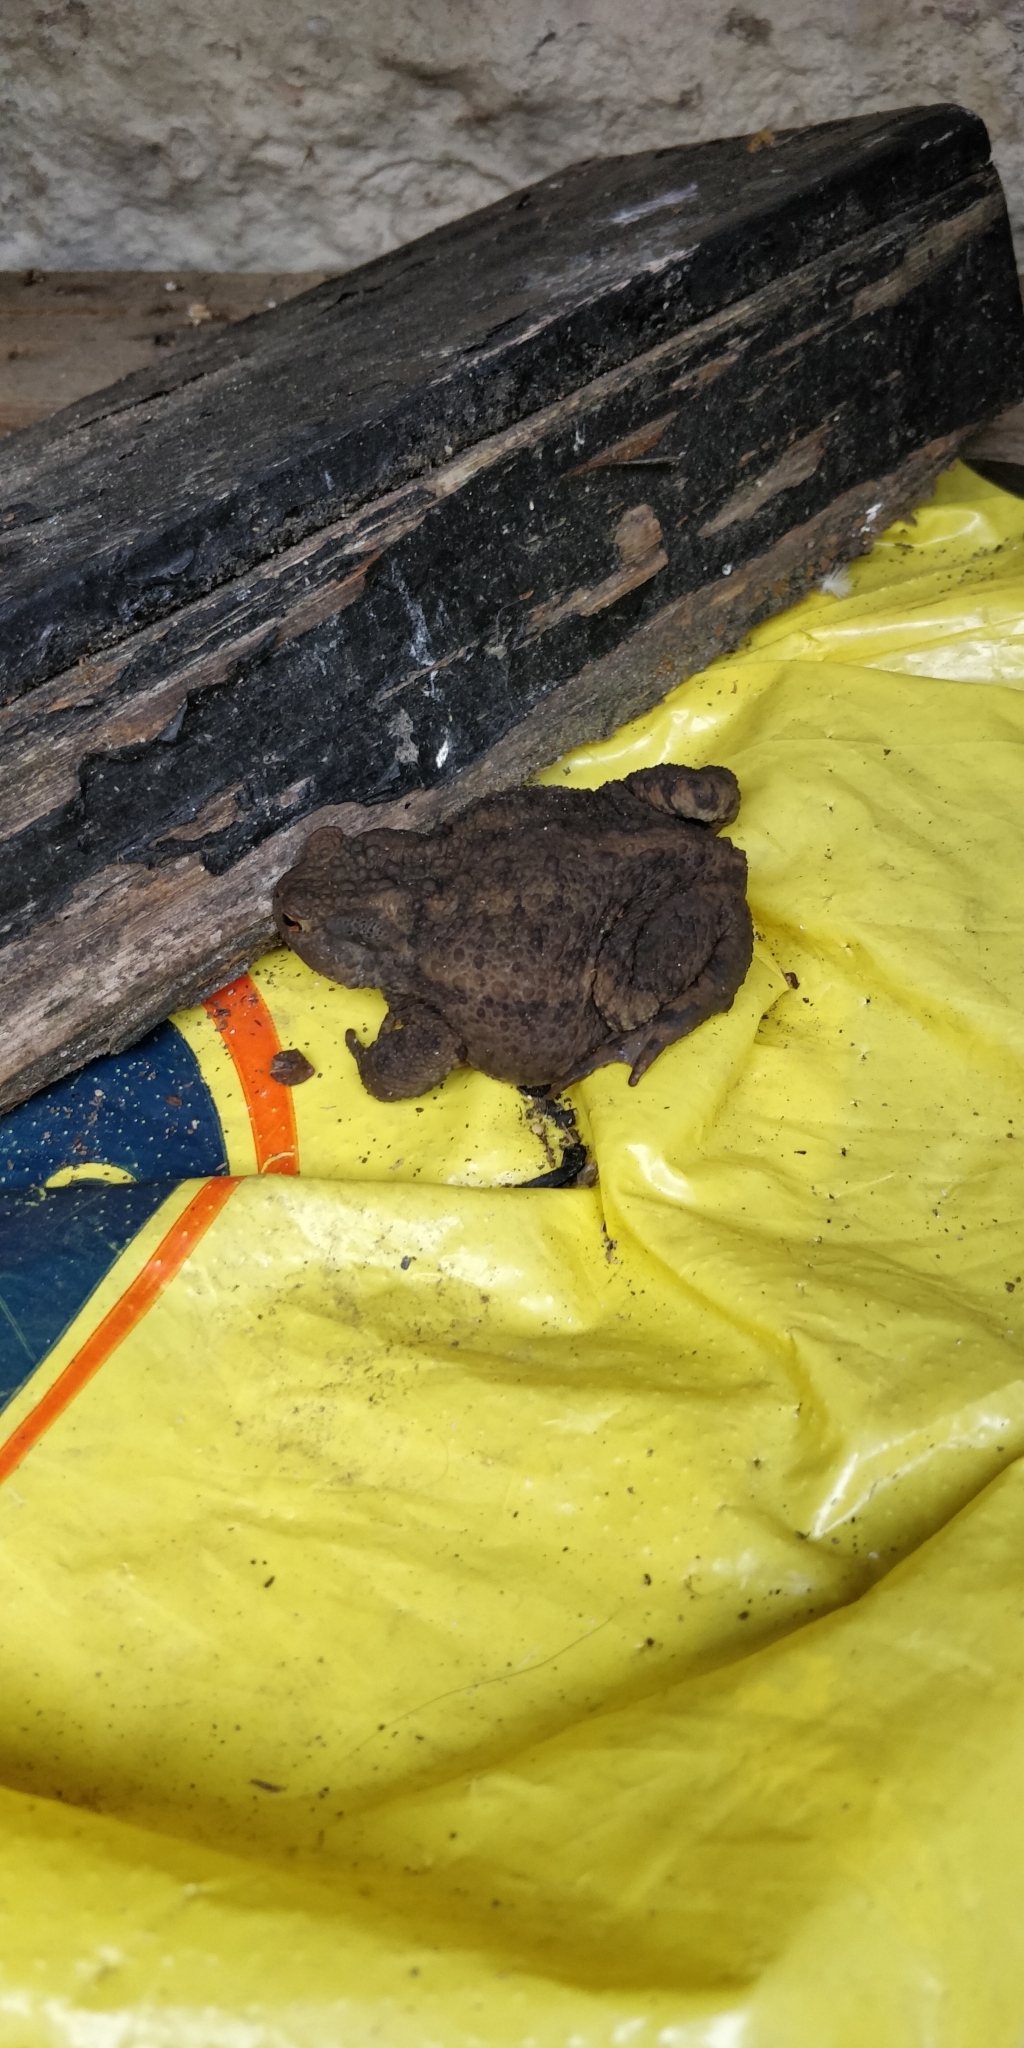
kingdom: Animalia
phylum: Chordata
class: Amphibia
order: Anura
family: Bufonidae
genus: Bufo
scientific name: Bufo bufo
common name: Common toad
